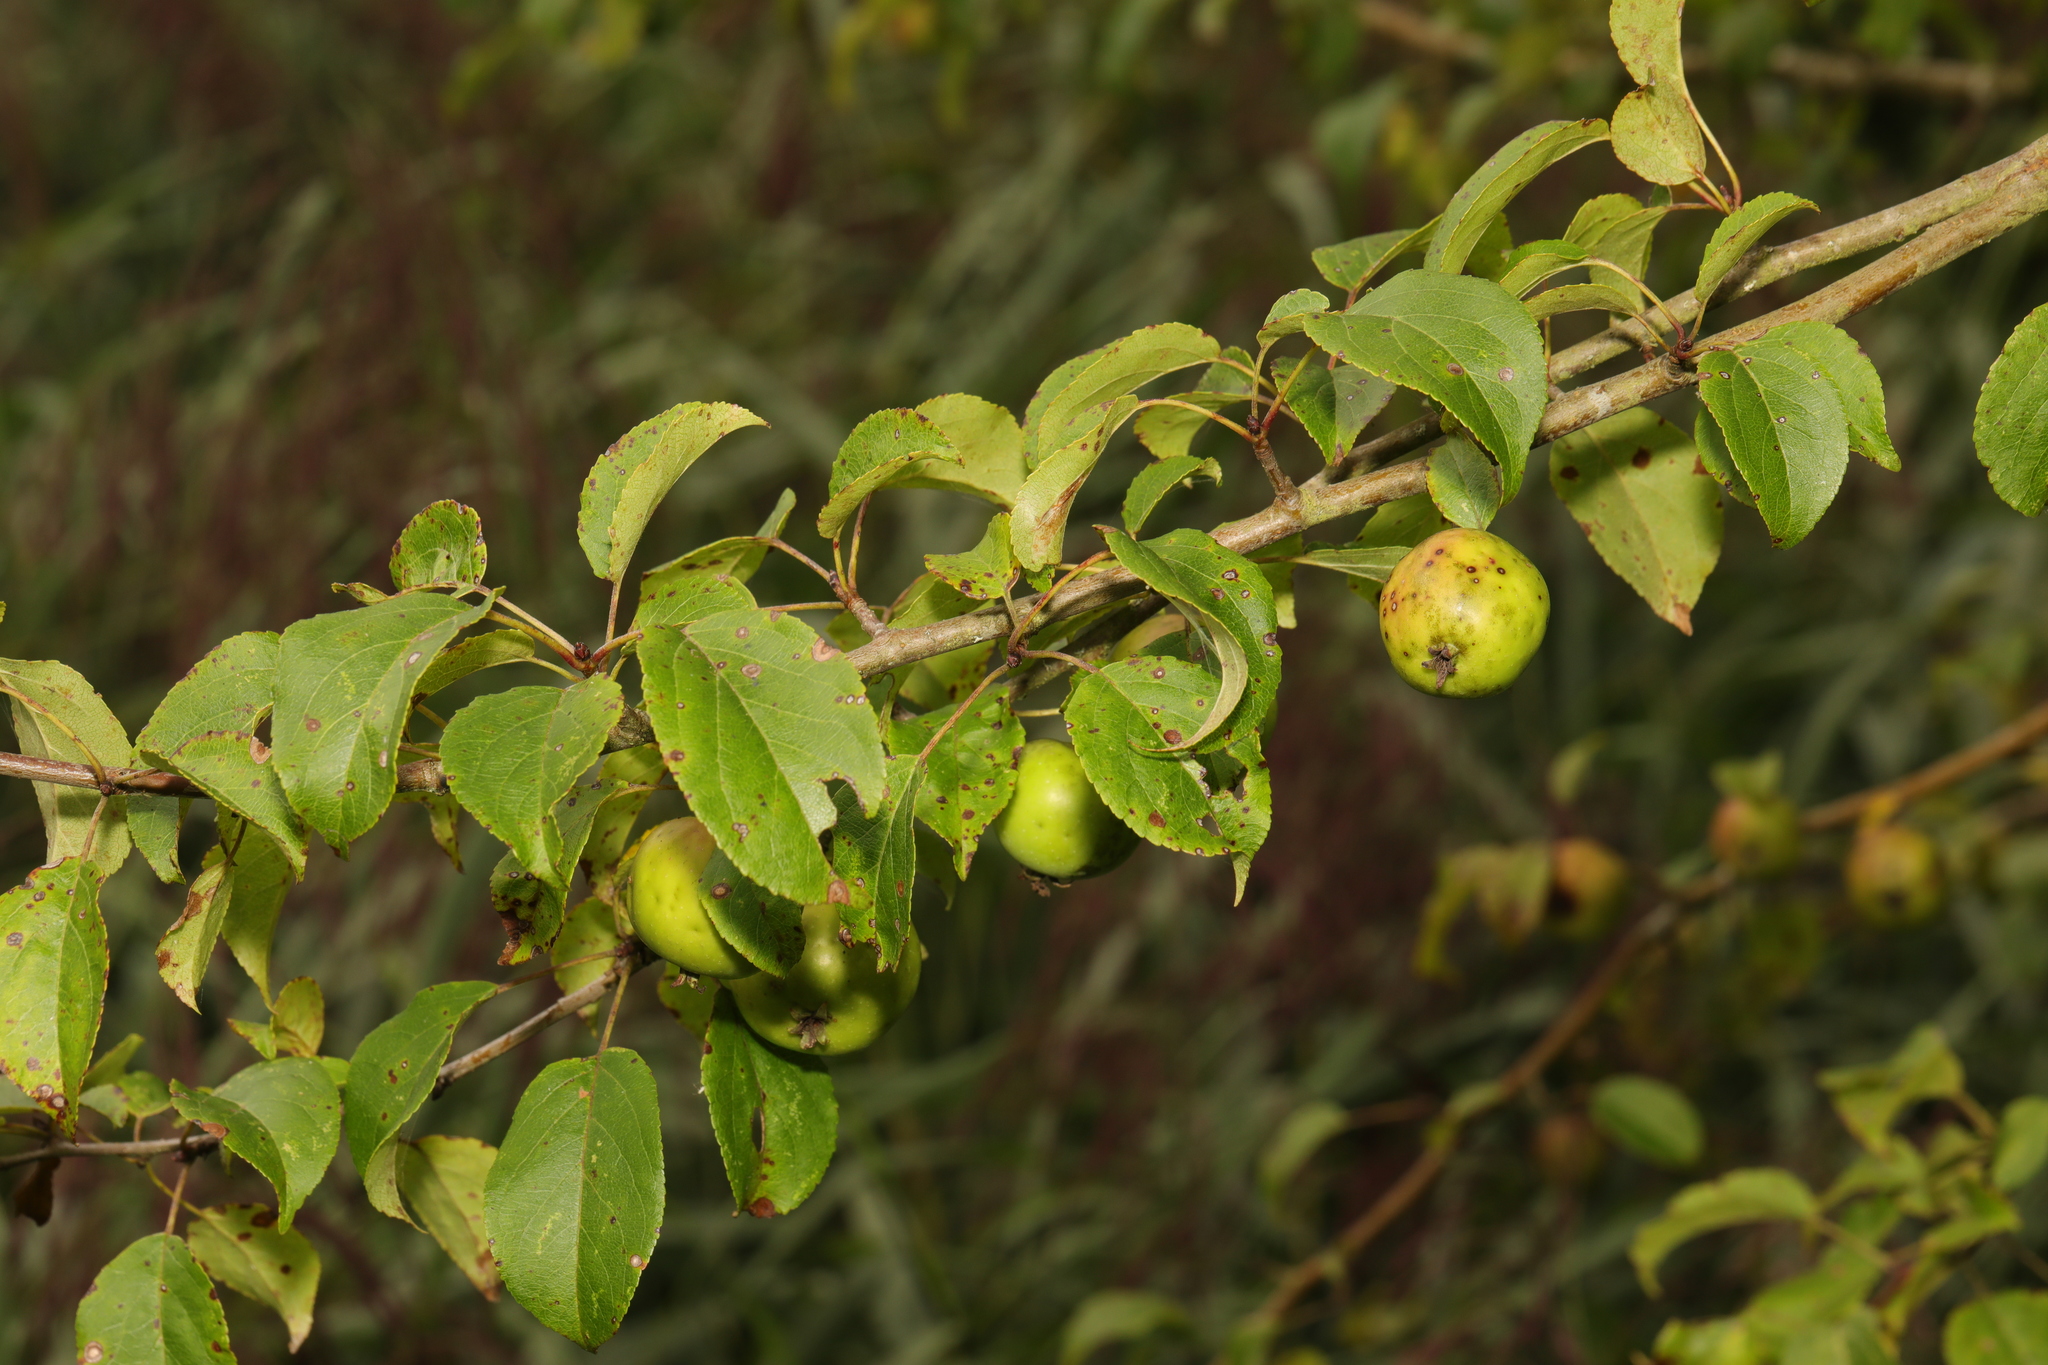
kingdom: Plantae
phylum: Tracheophyta
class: Magnoliopsida
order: Rosales
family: Rosaceae
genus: Malus
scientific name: Malus sylvestris
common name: Crab apple
